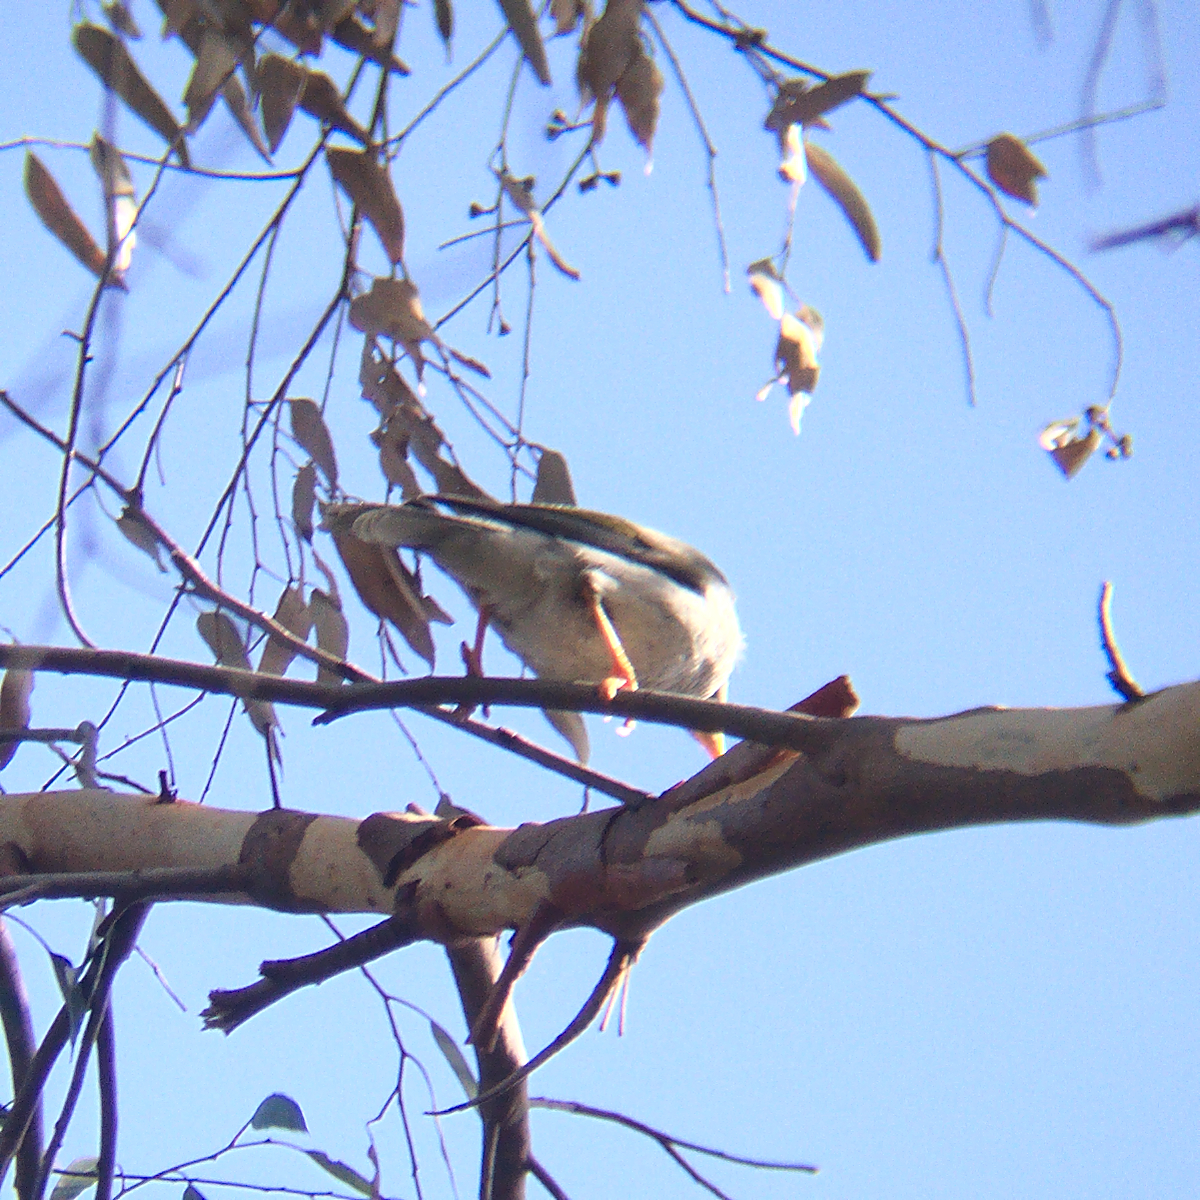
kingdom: Animalia
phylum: Chordata
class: Aves
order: Passeriformes
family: Meliphagidae
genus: Manorina
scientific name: Manorina melanocephala
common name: Noisy miner
